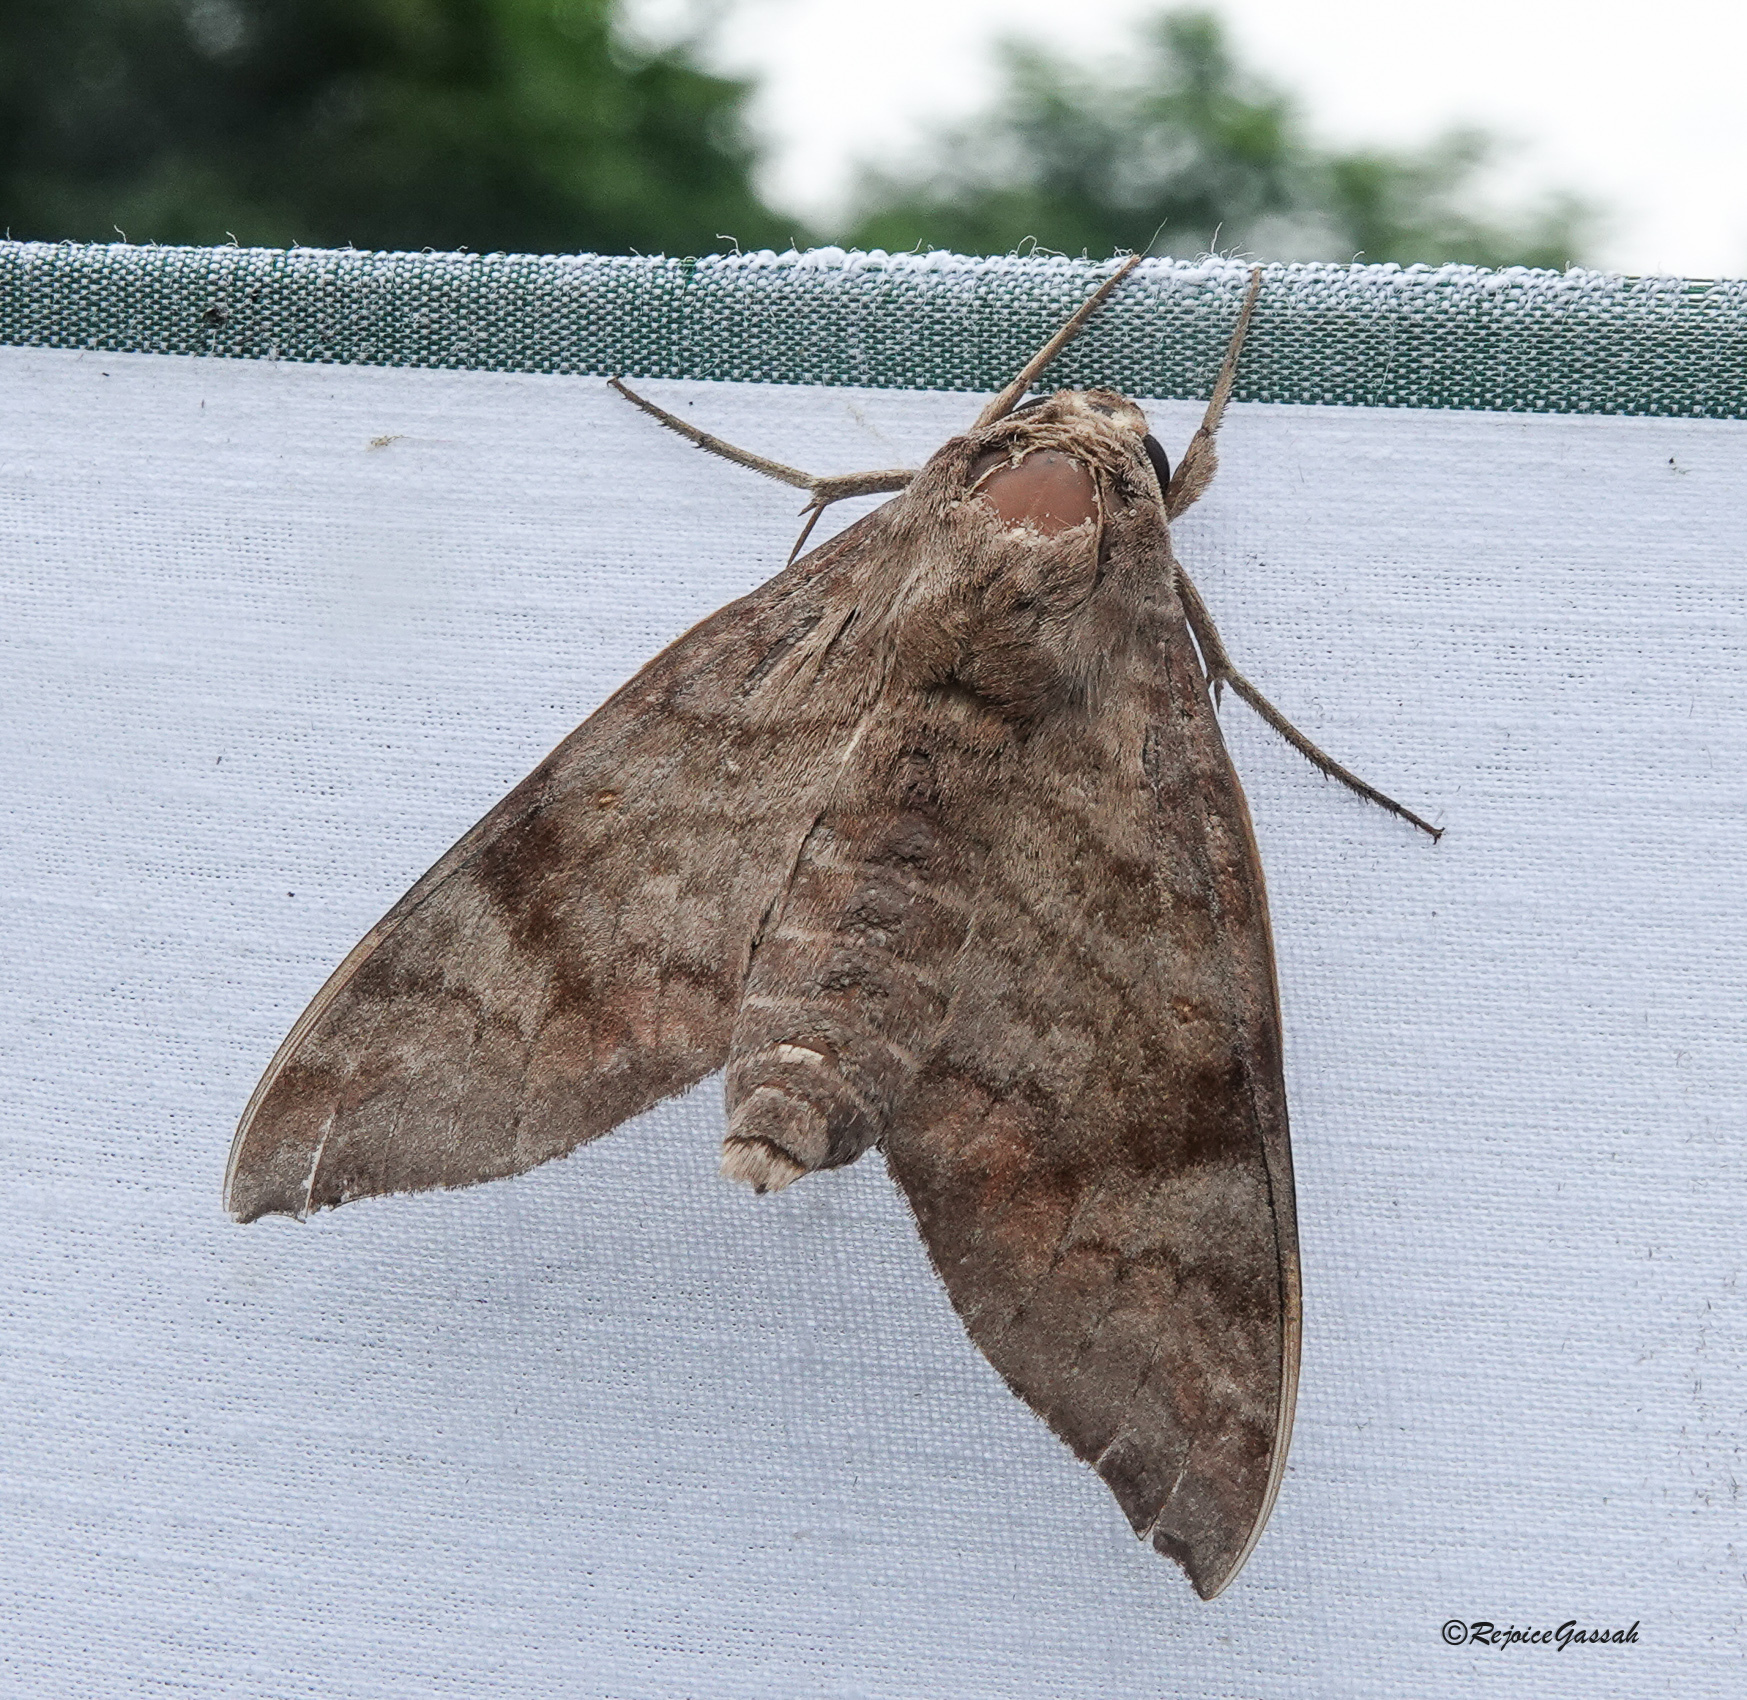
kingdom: Animalia
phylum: Arthropoda
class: Insecta
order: Lepidoptera
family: Sphingidae
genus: Acosmeryx
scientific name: Acosmeryx shervillii
